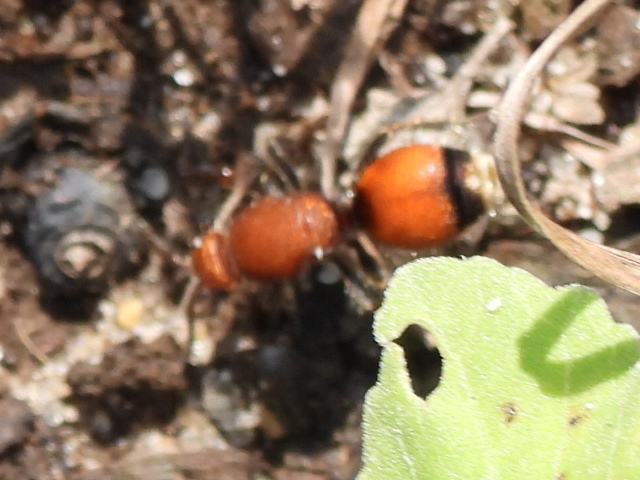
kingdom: Animalia
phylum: Arthropoda
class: Insecta
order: Hymenoptera
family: Mutillidae
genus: Dasymutilla
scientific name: Dasymutilla
